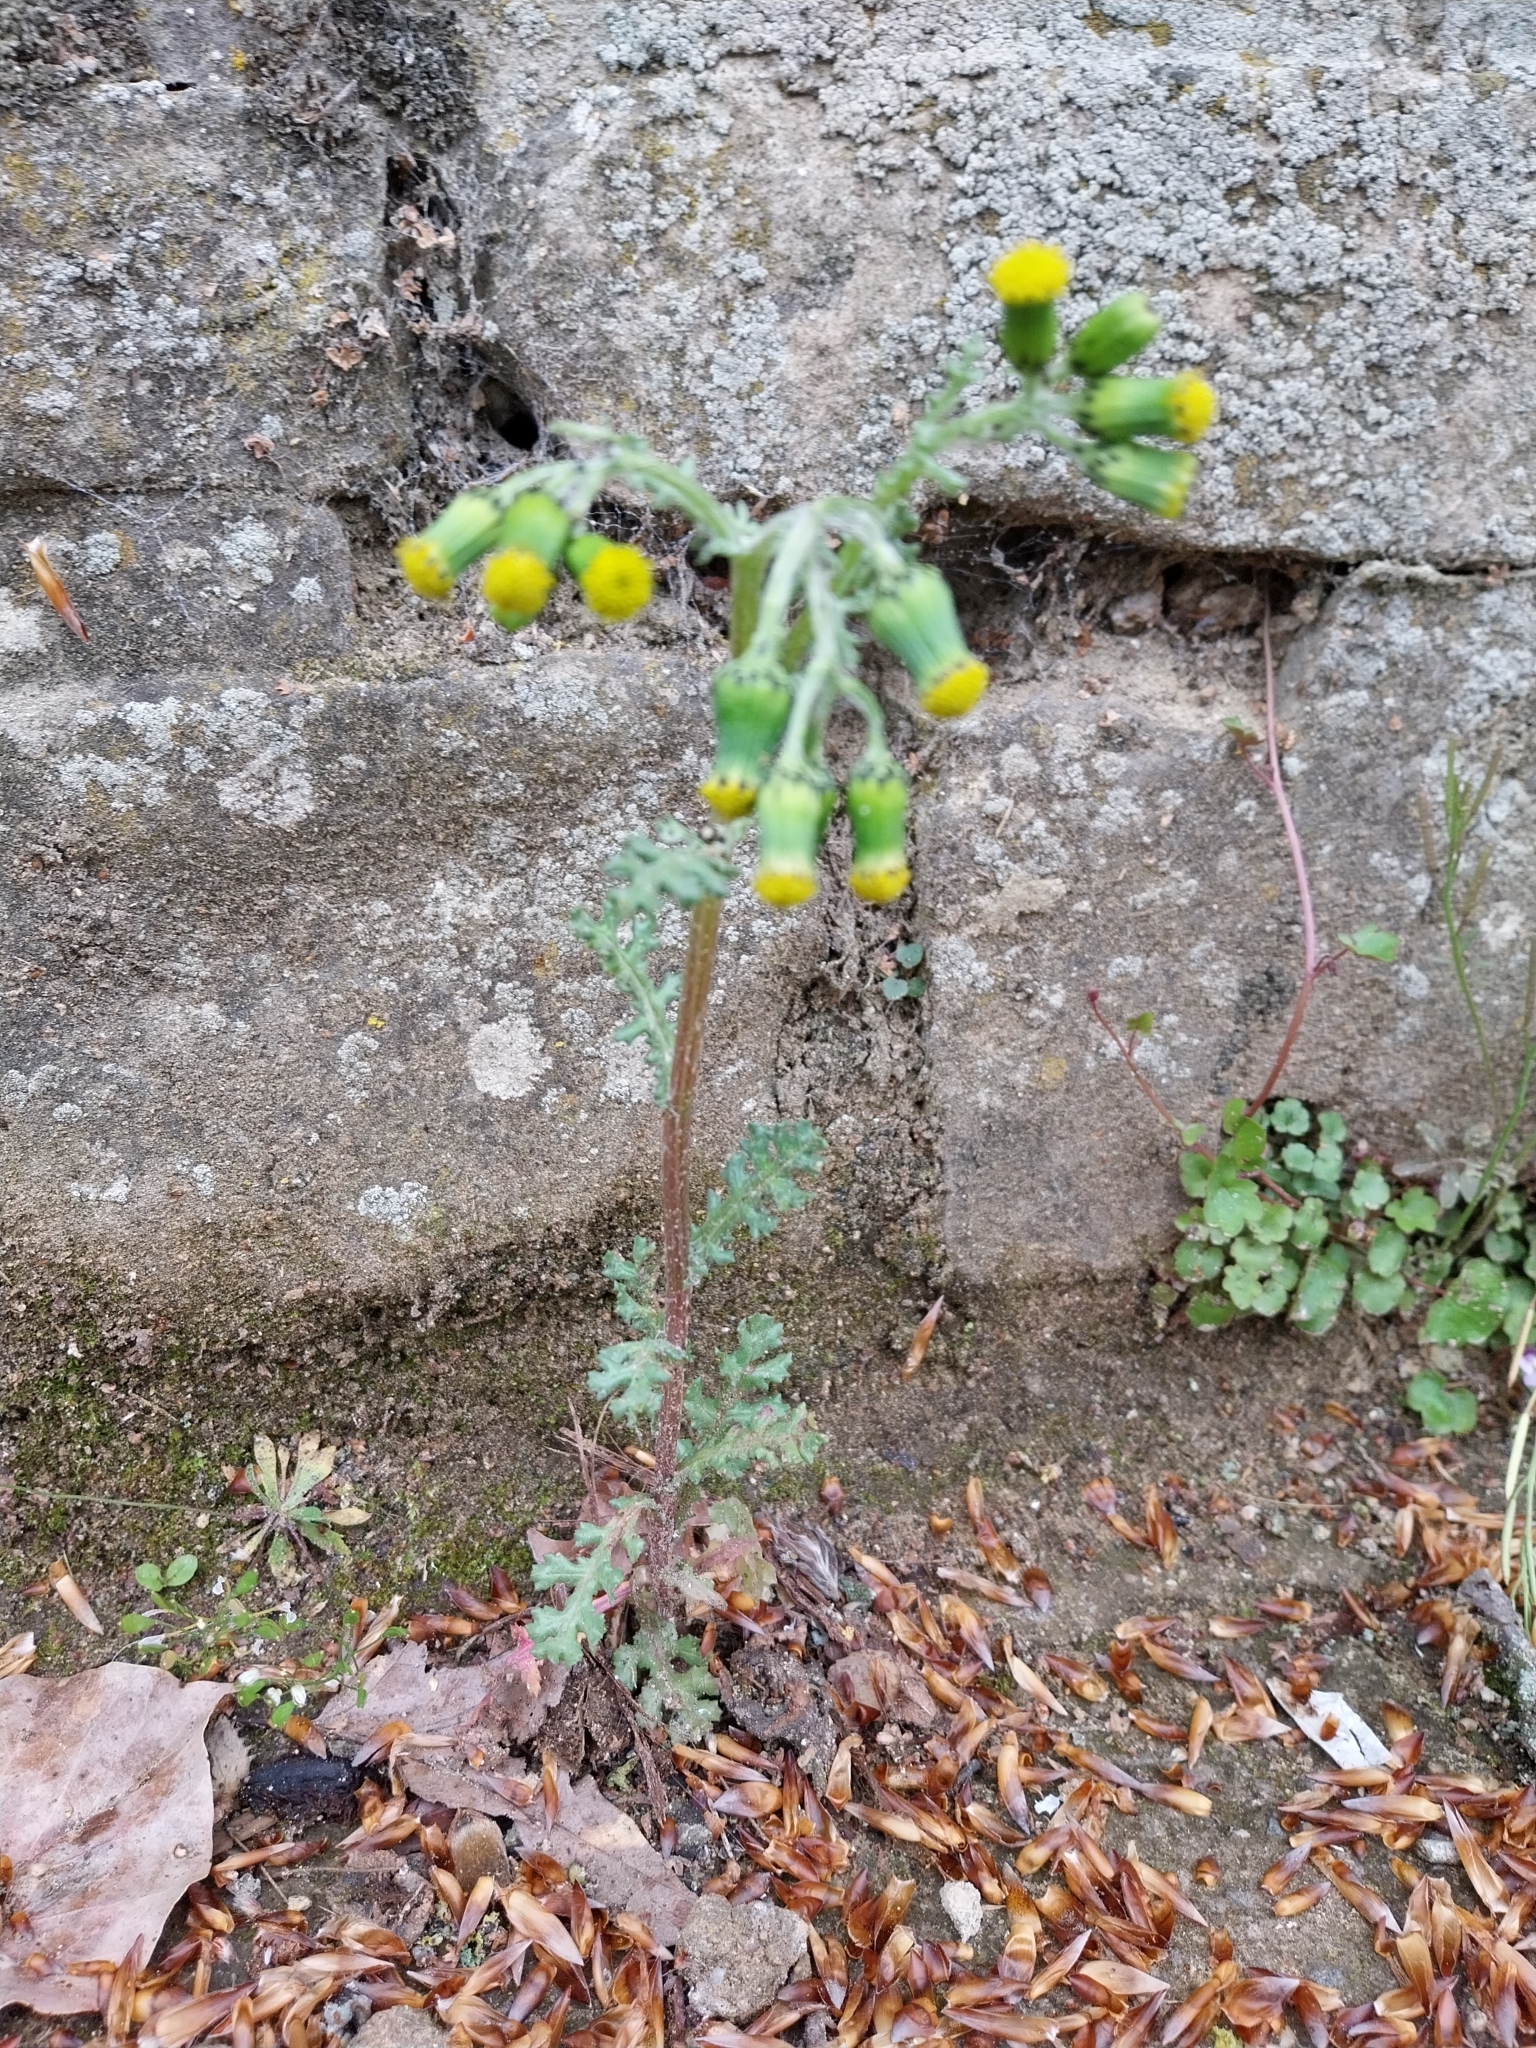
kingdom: Plantae
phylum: Tracheophyta
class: Magnoliopsida
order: Asterales
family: Asteraceae
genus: Senecio
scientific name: Senecio vulgaris
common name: Old-man-in-the-spring
